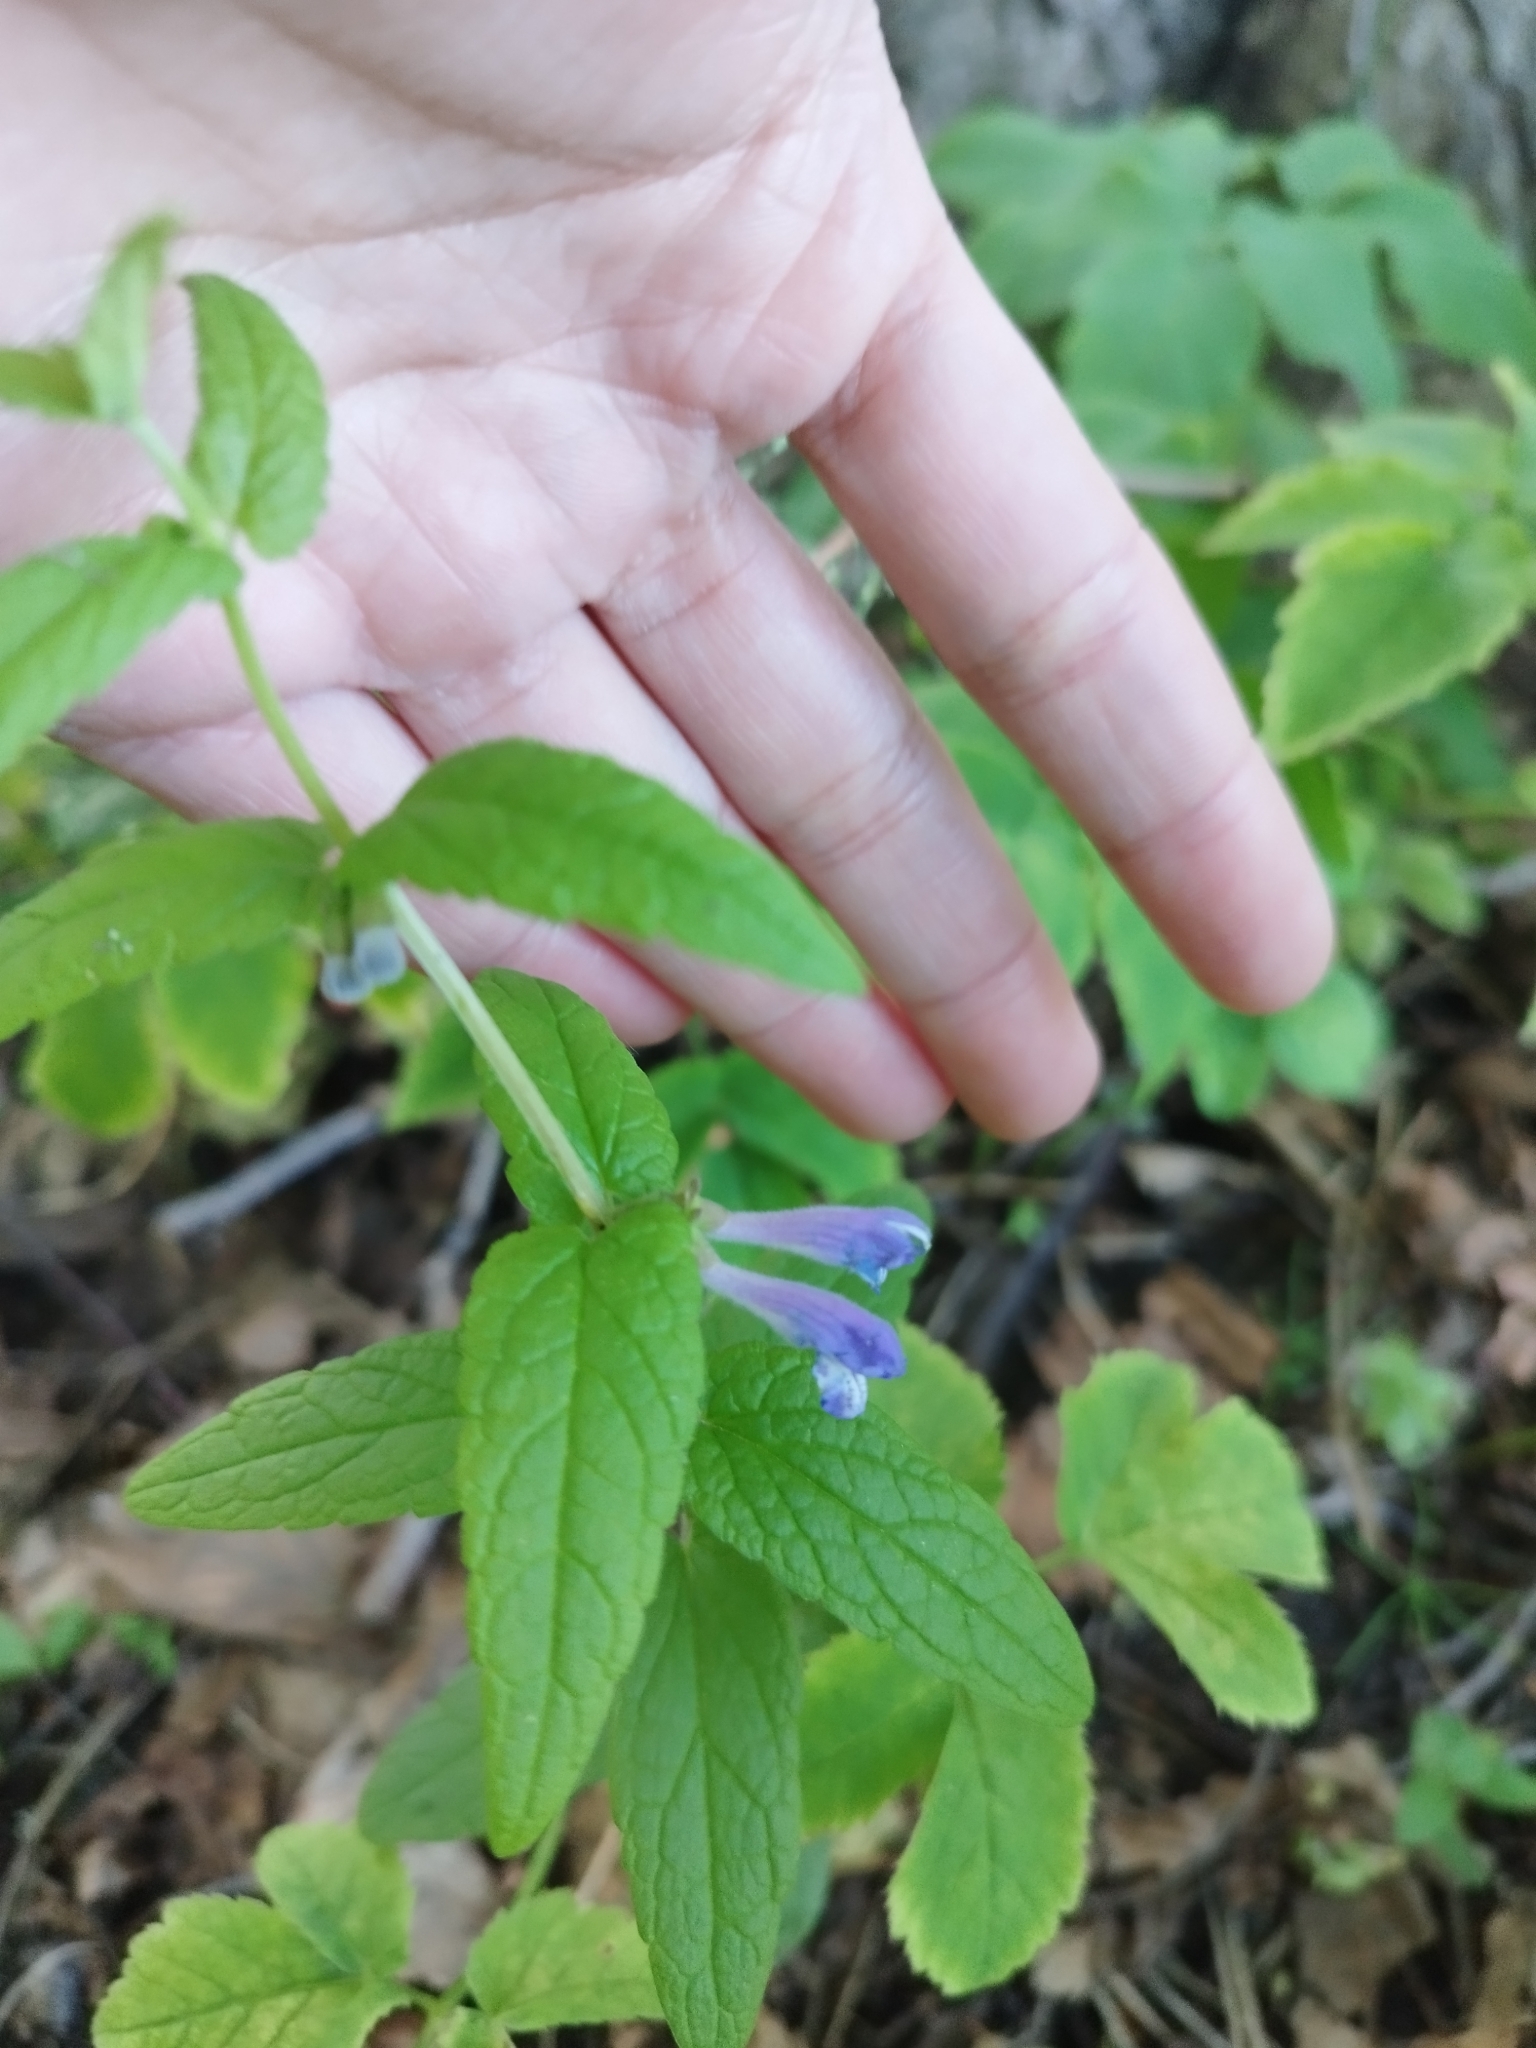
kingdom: Plantae
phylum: Tracheophyta
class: Magnoliopsida
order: Lamiales
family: Lamiaceae
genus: Scutellaria
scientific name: Scutellaria galericulata
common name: Skullcap
